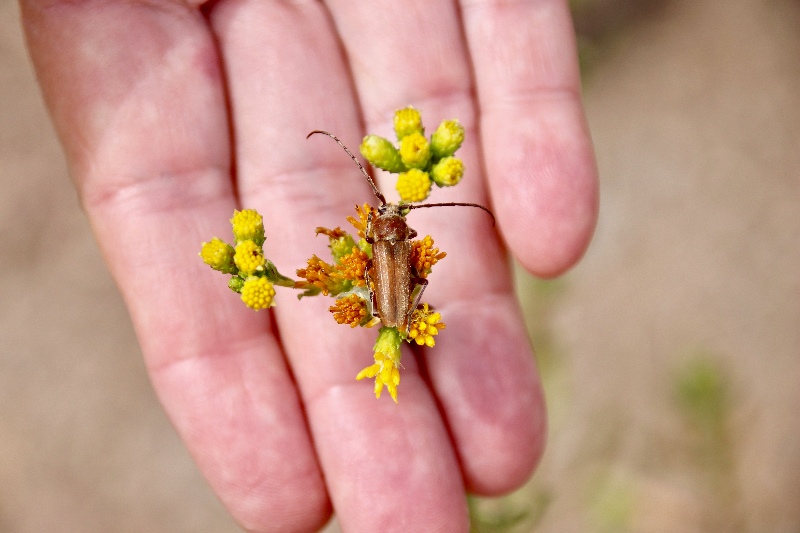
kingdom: Animalia
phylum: Arthropoda
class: Insecta
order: Coleoptera
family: Cerambycidae
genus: Crossidius
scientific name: Crossidius testaceus
